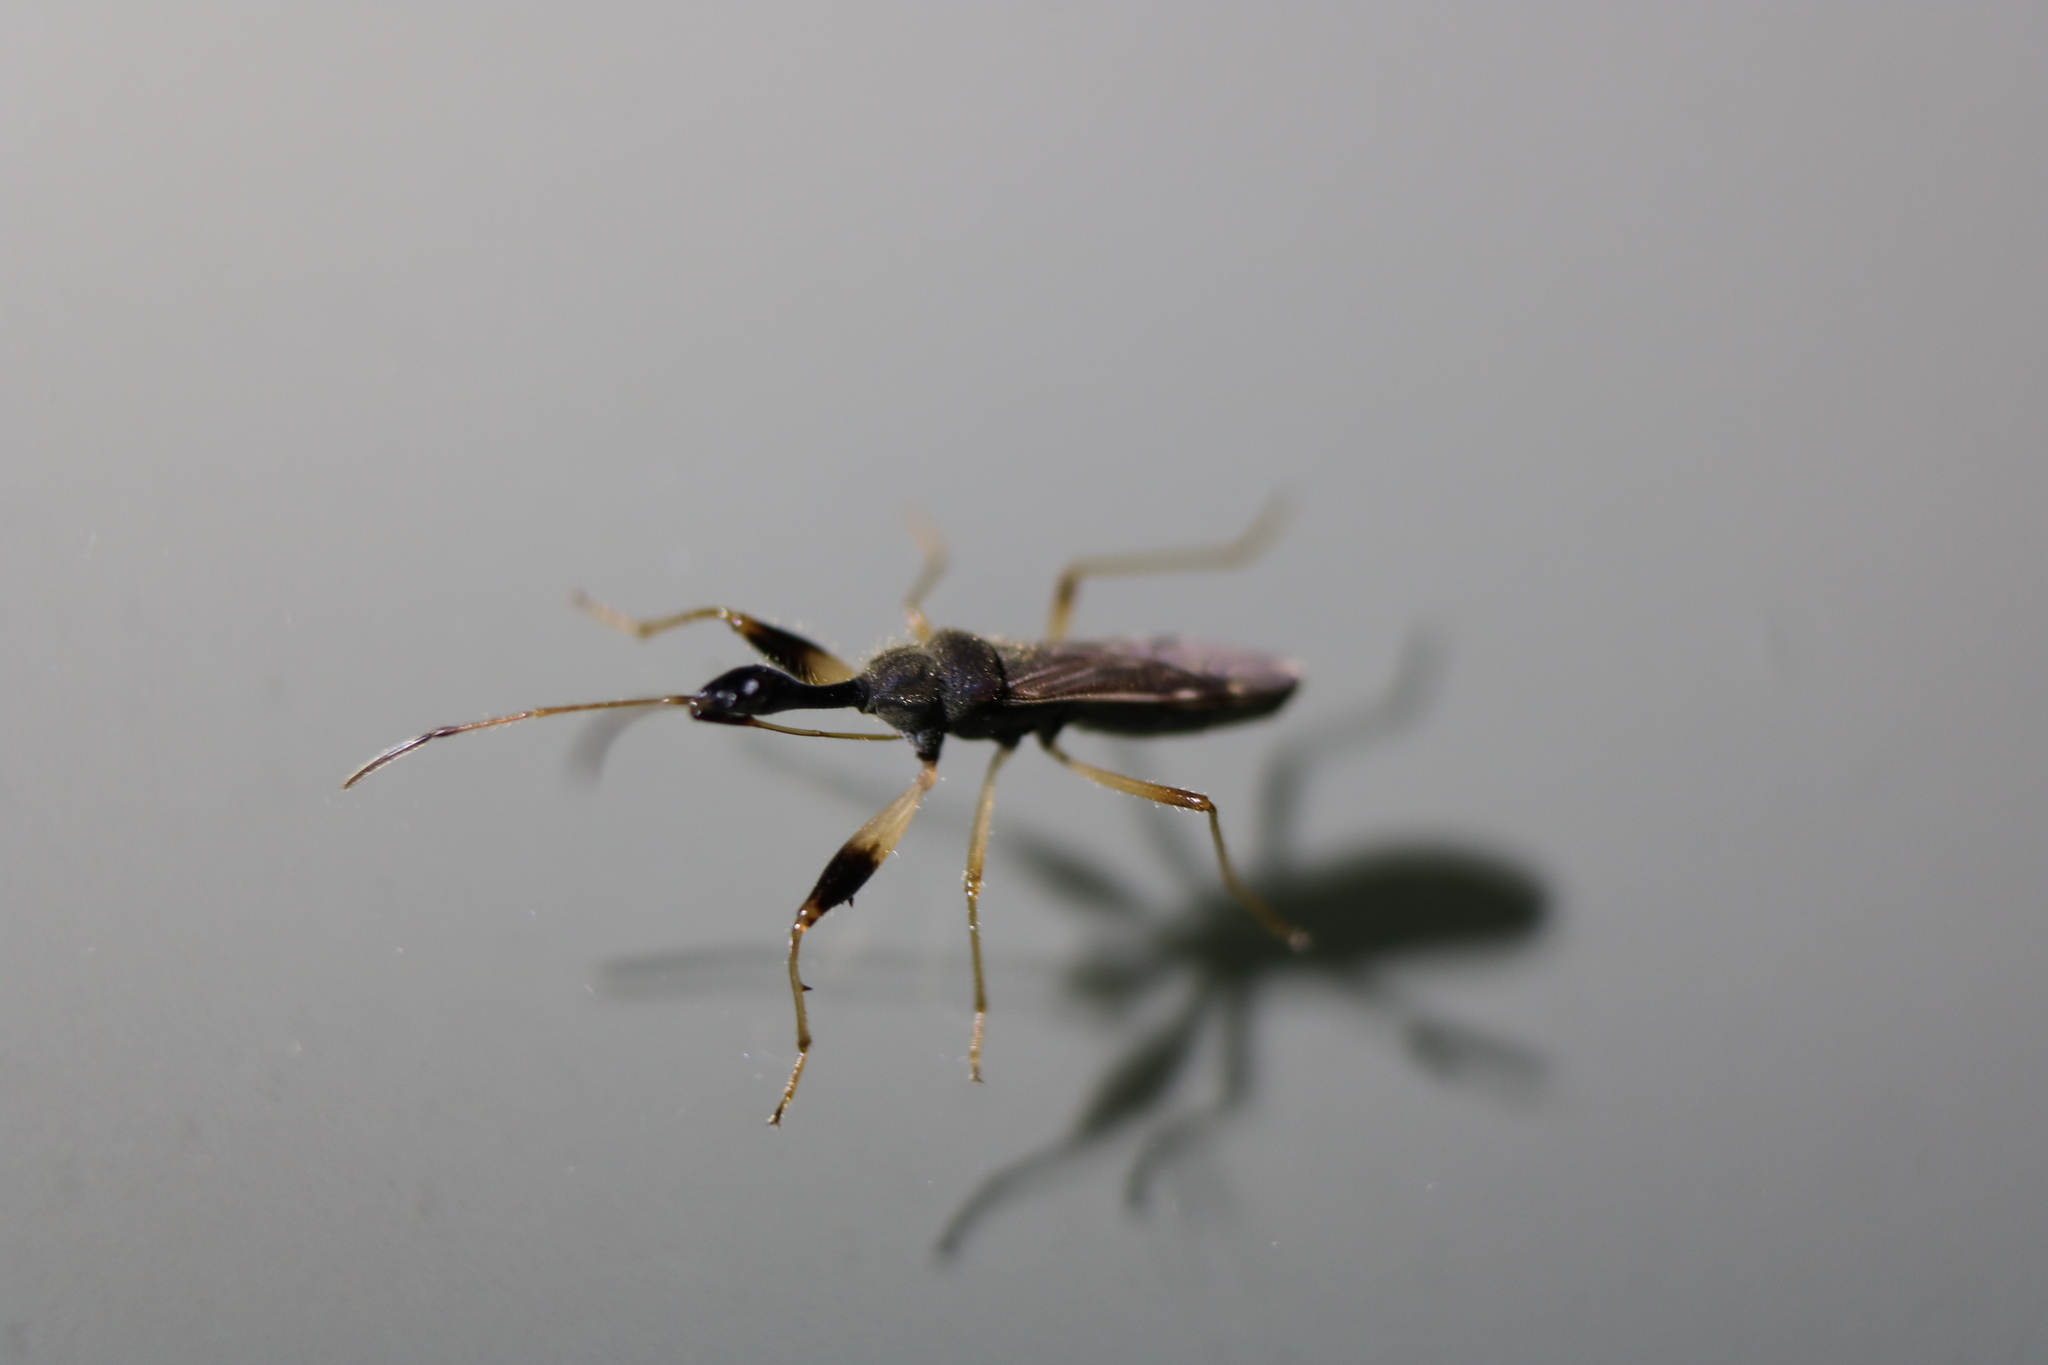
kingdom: Animalia
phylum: Arthropoda
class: Insecta
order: Hemiptera
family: Rhyparochromidae
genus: Myodocha
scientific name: Myodocha serripes
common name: Long-necked seed bug
